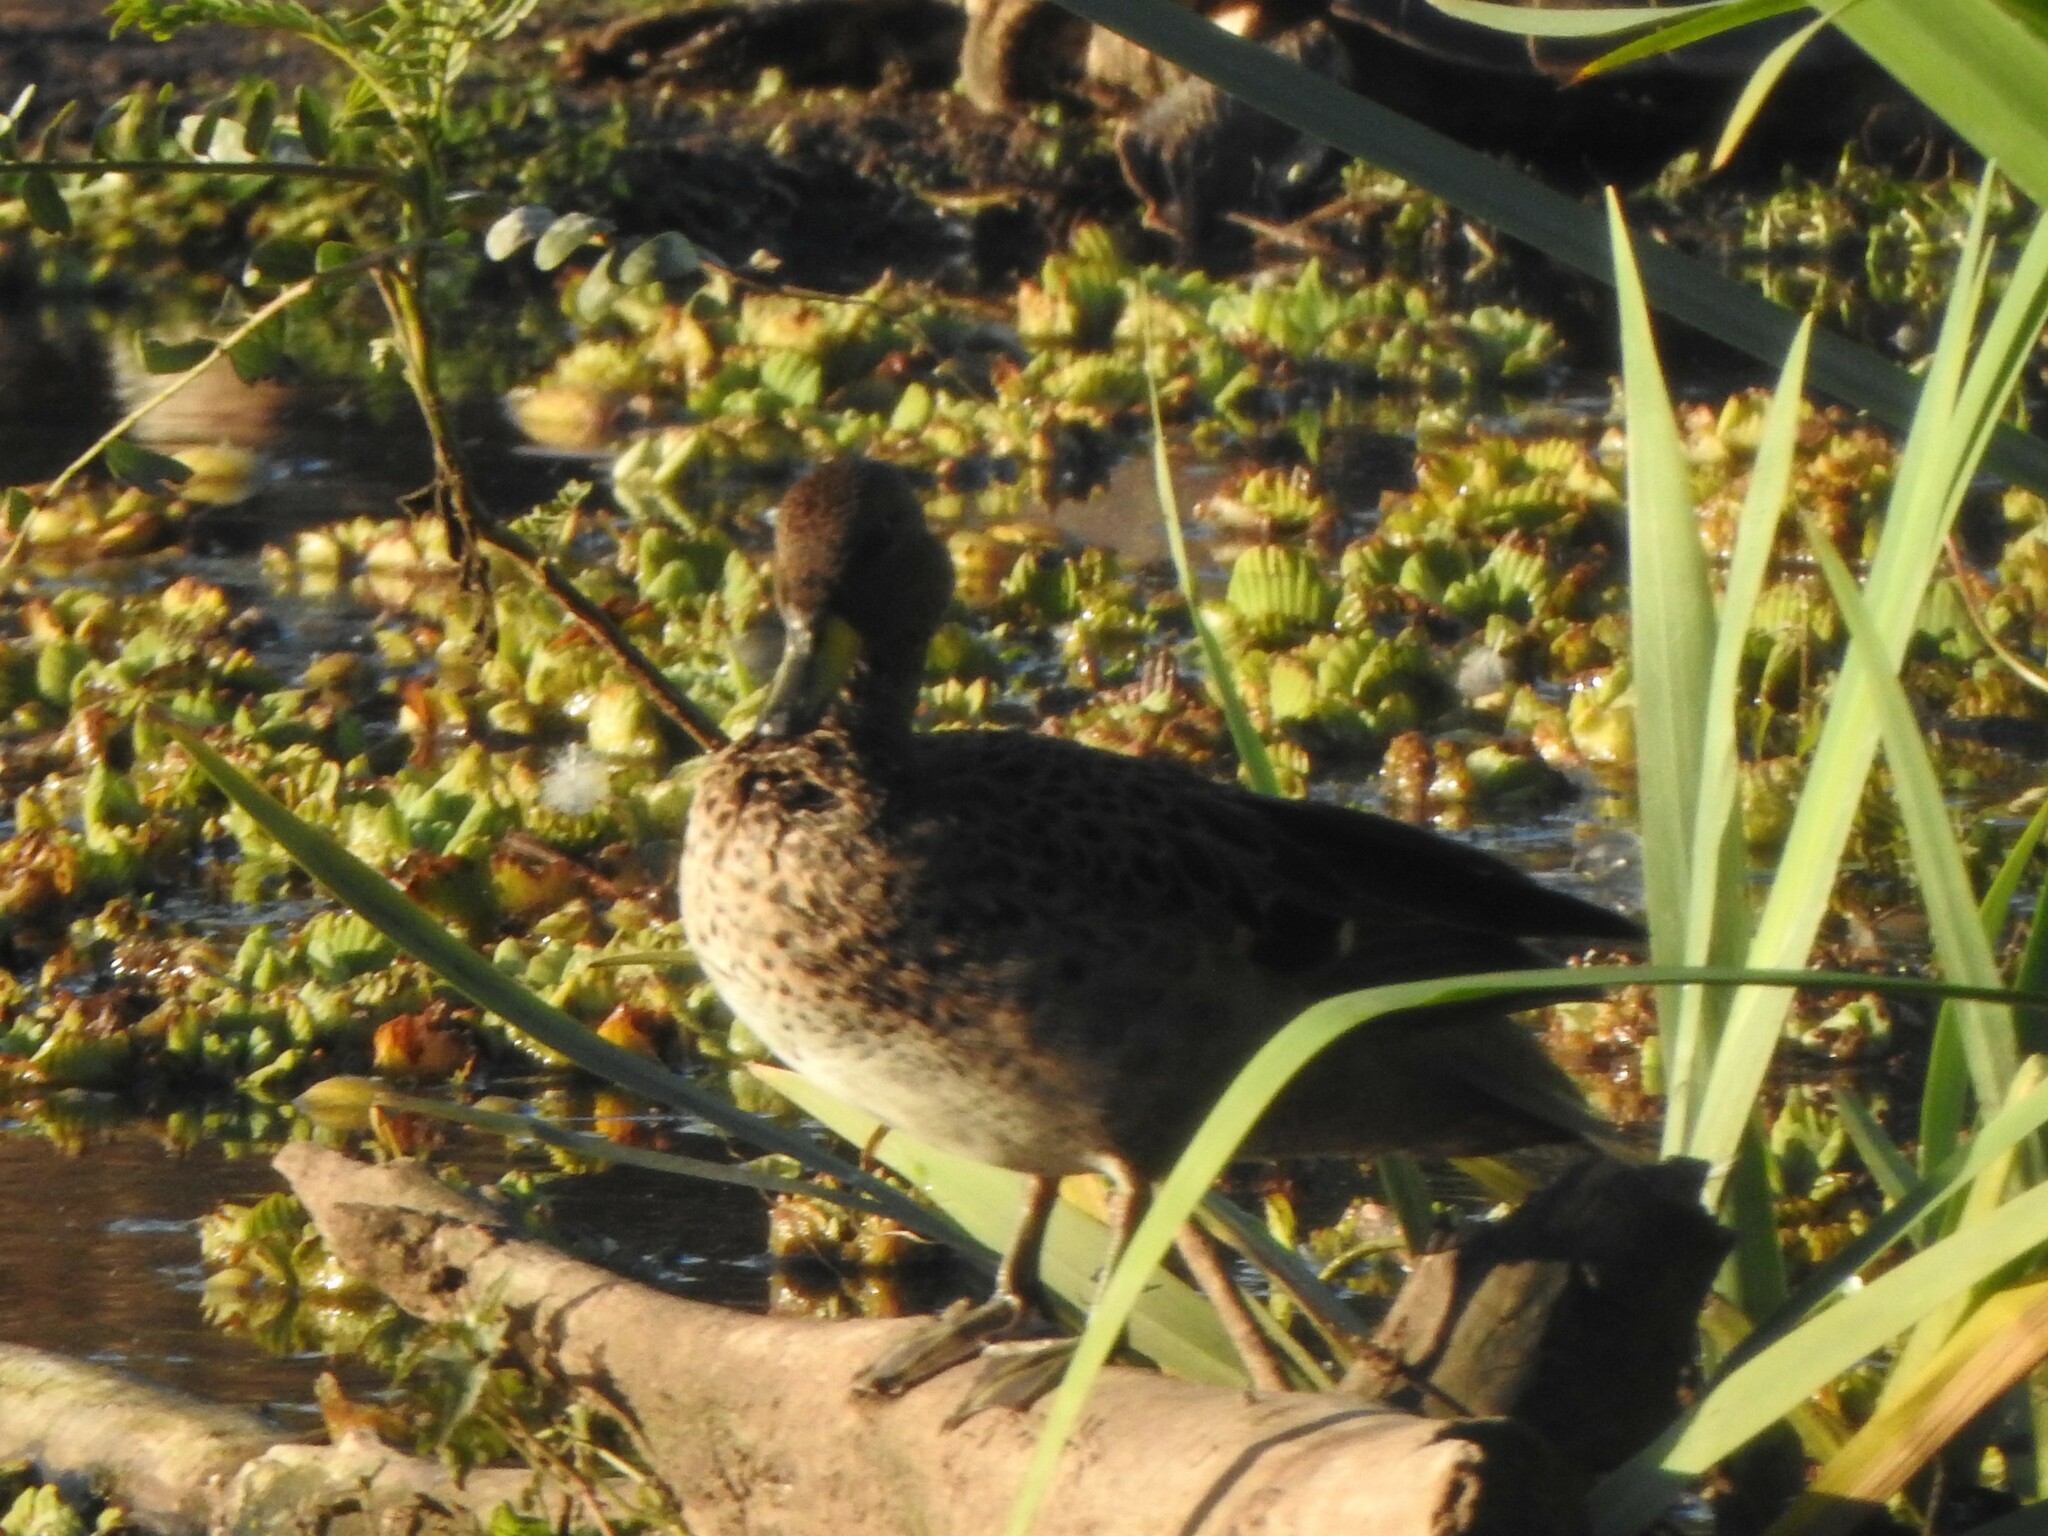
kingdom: Animalia
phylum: Chordata
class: Aves
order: Anseriformes
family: Anatidae
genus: Anas
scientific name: Anas flavirostris
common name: Yellow-billed teal
